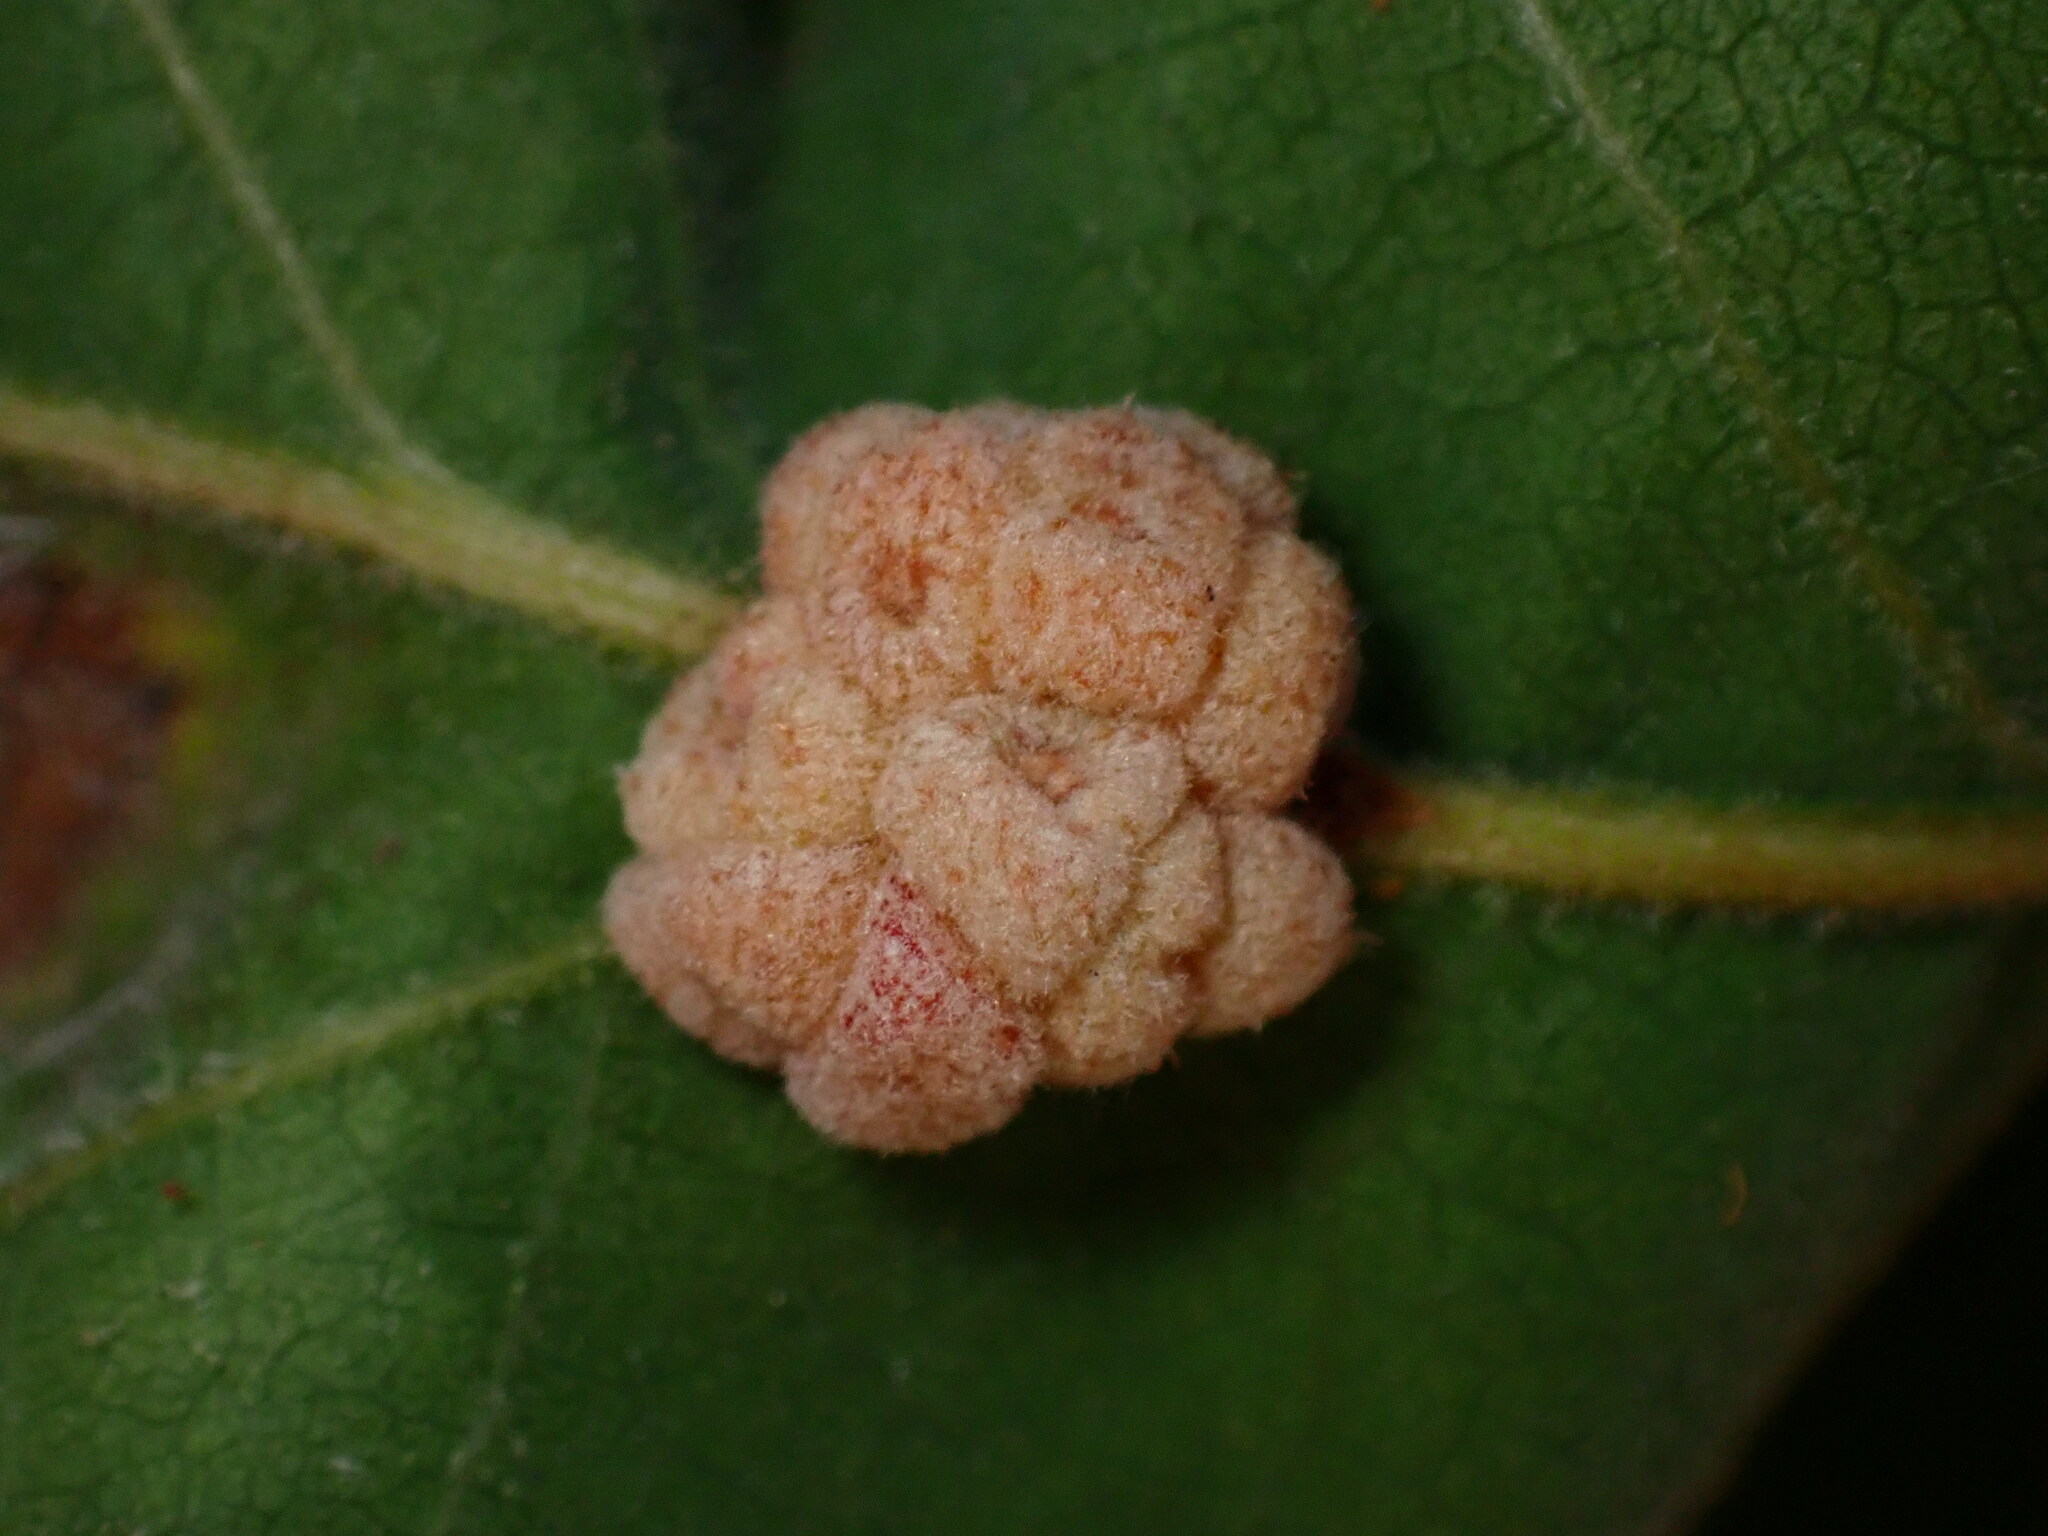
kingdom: Animalia
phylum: Arthropoda
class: Insecta
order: Hymenoptera
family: Cynipidae
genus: Andricus
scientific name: Andricus
